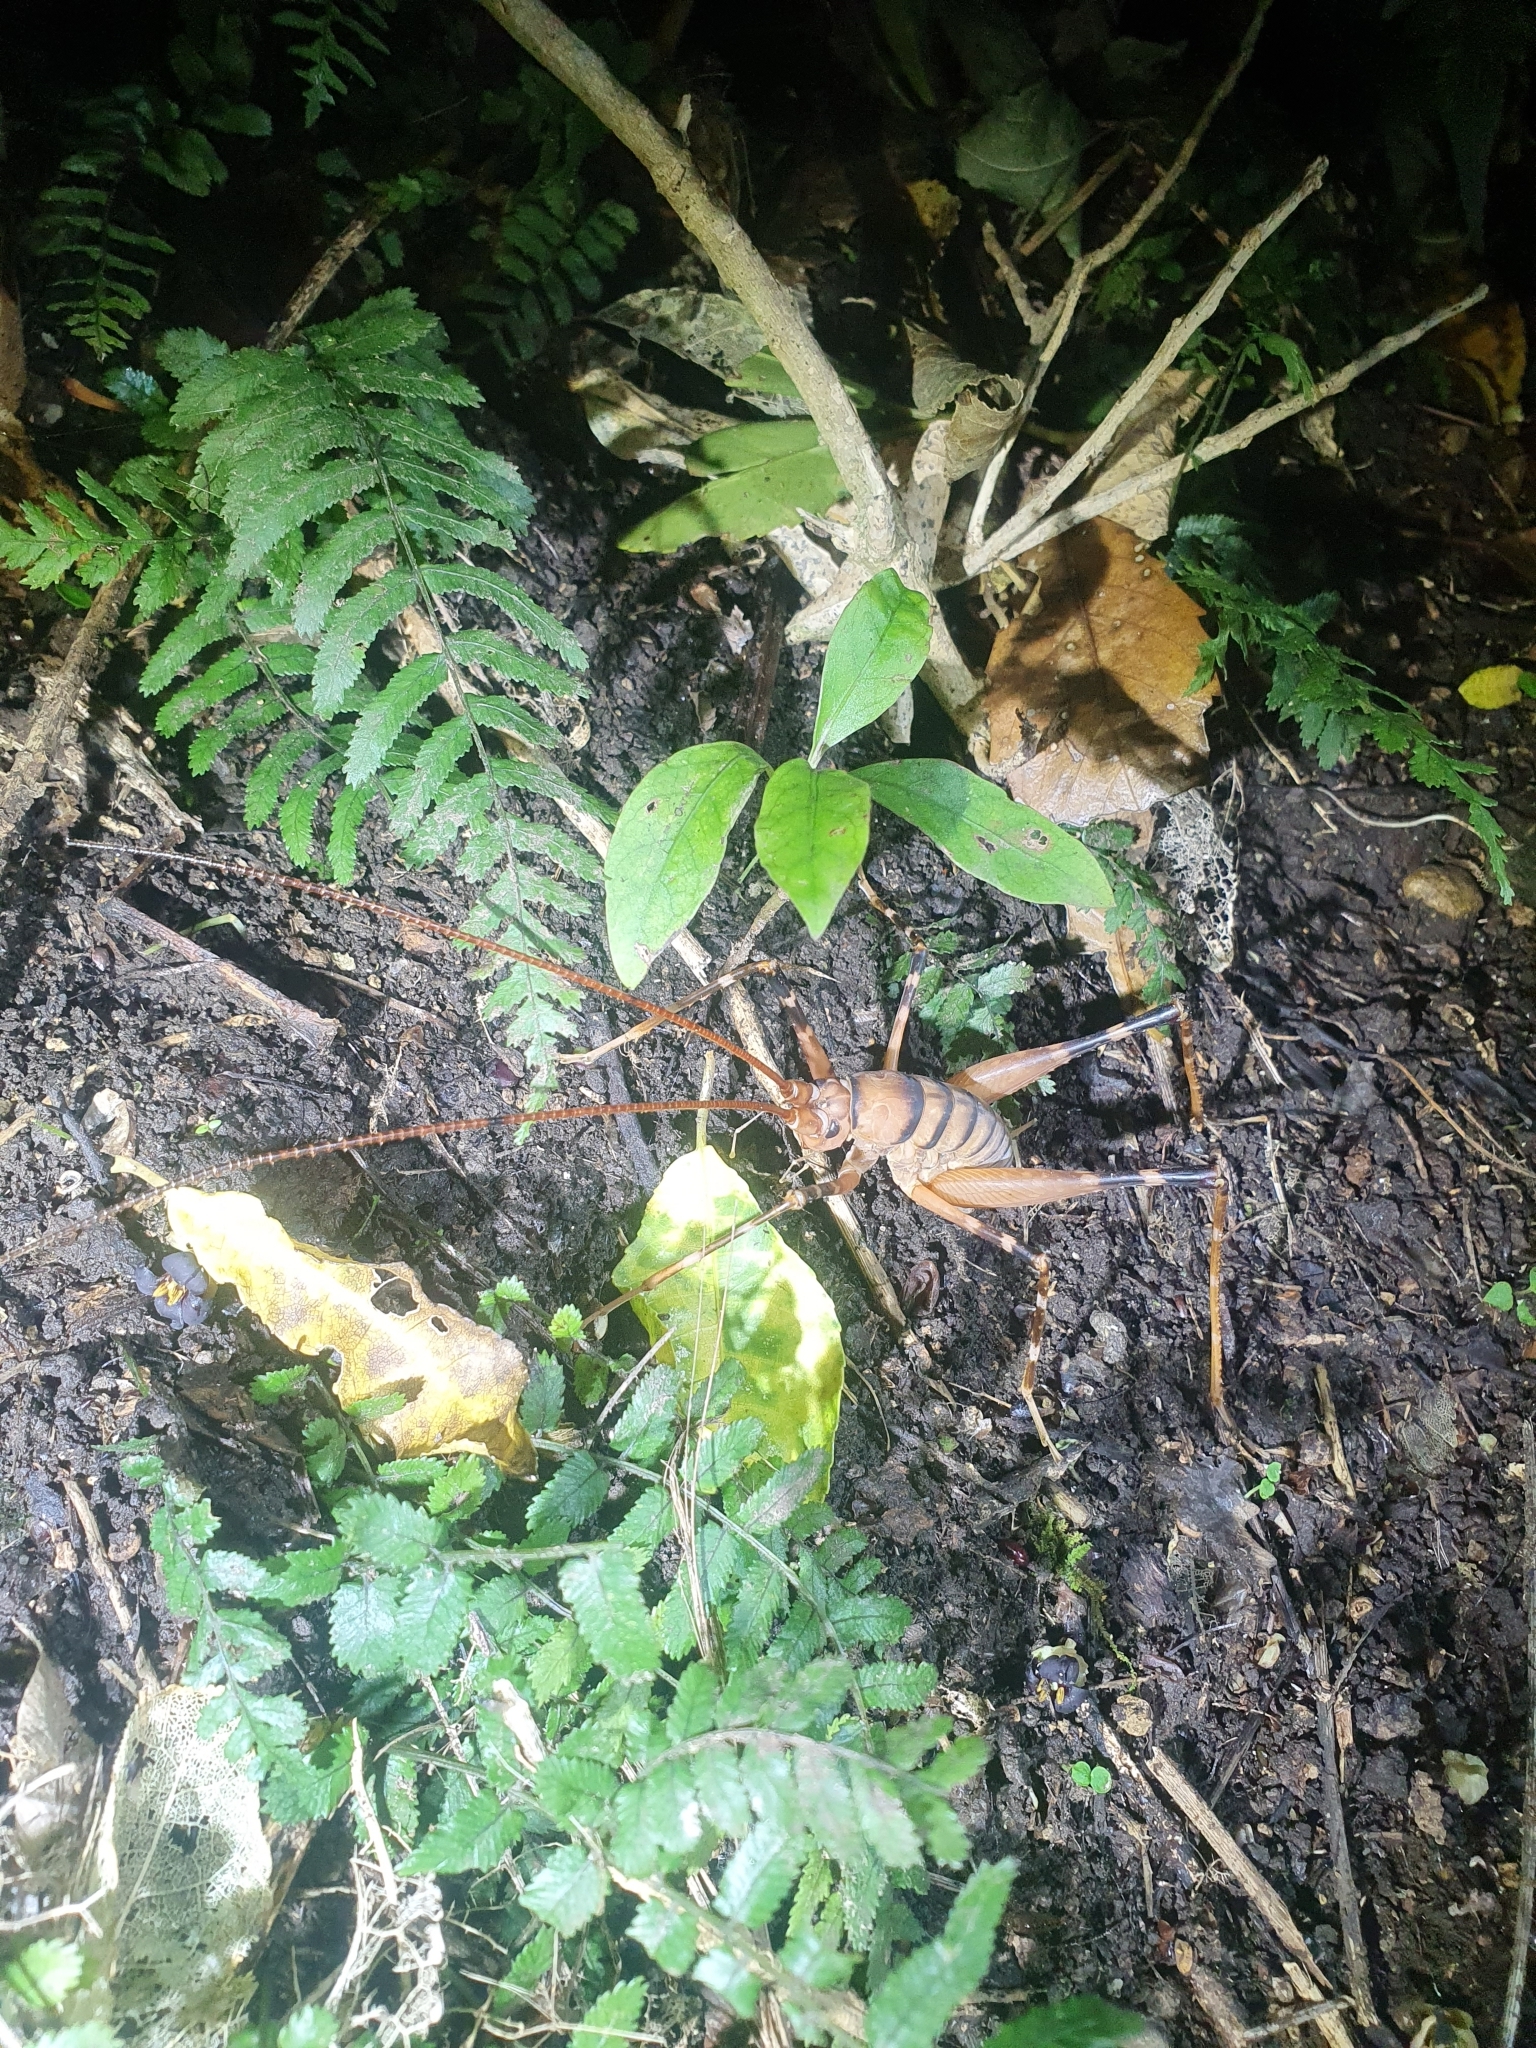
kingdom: Animalia
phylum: Arthropoda
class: Insecta
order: Orthoptera
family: Rhaphidophoridae
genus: Pachyrhamma
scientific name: Pachyrhamma edwardsii
